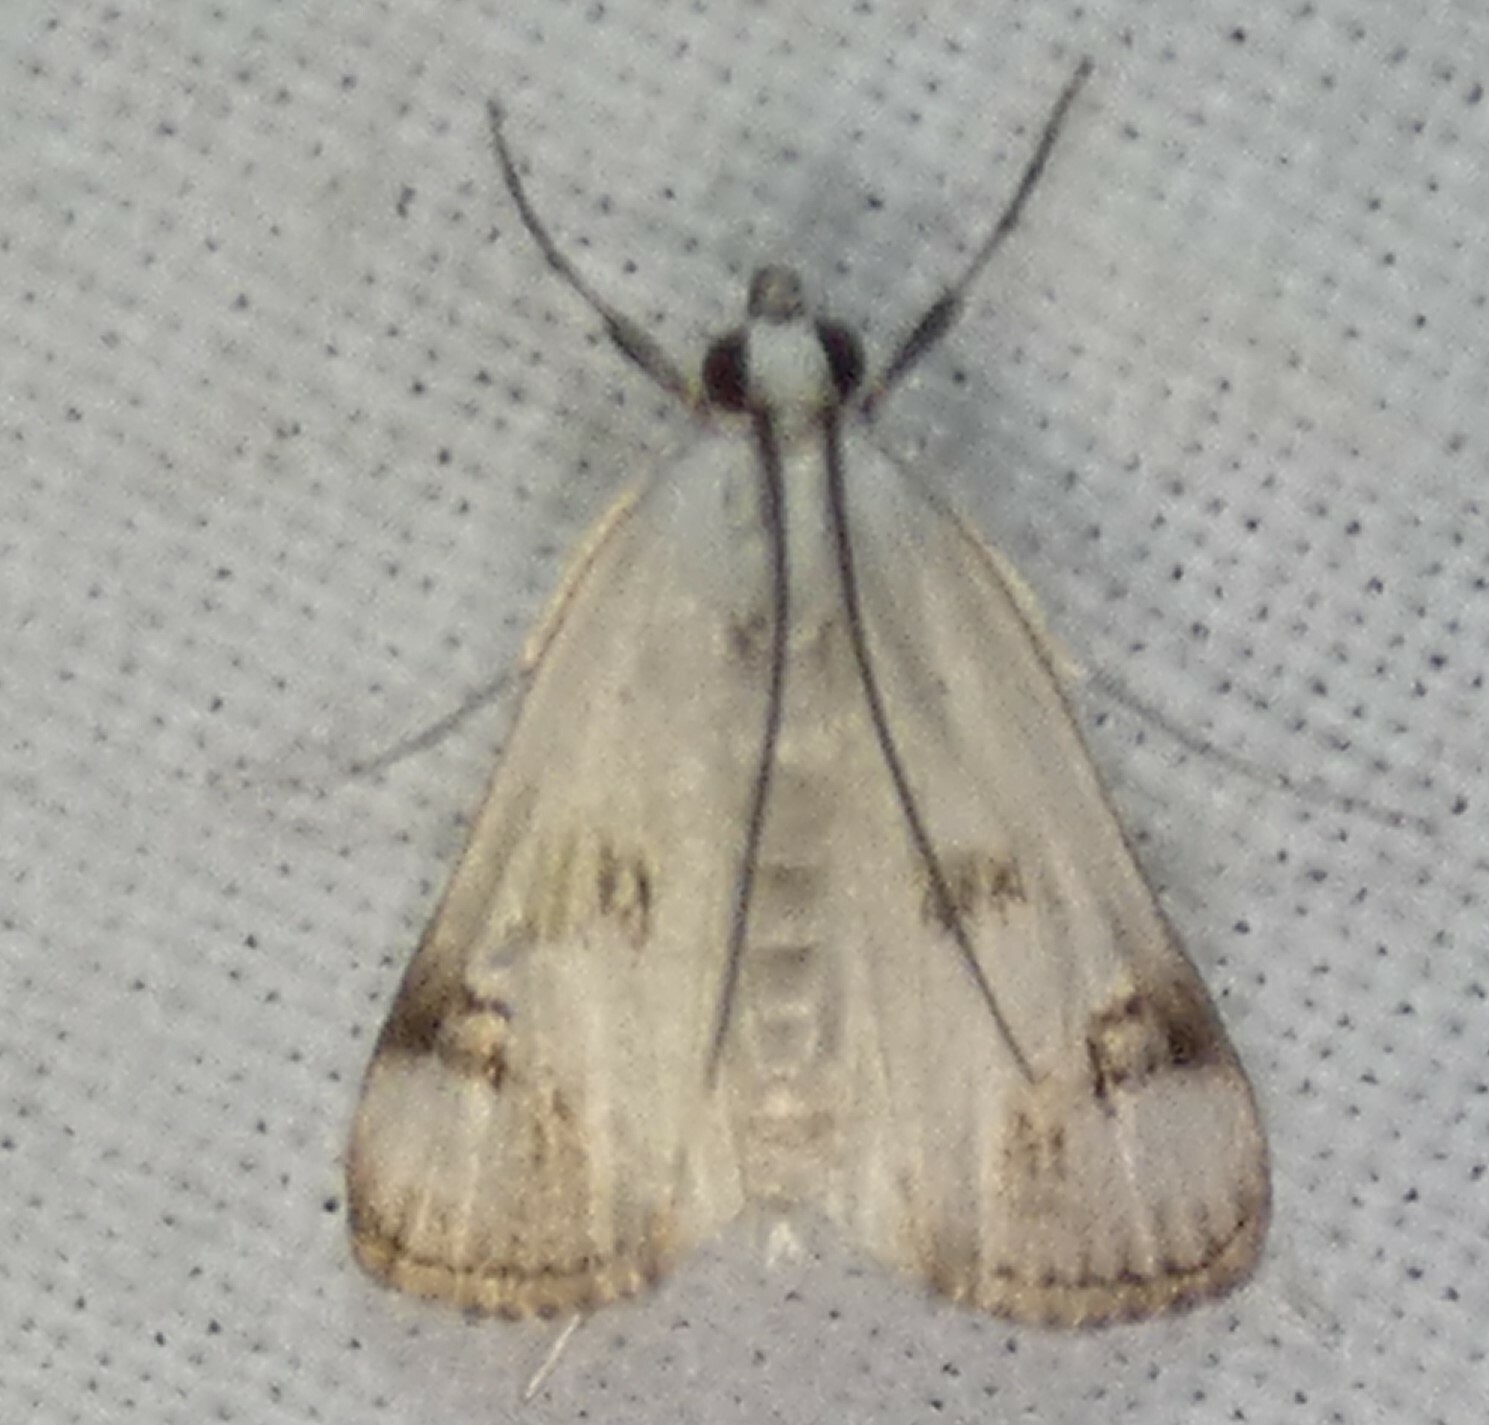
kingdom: Animalia
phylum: Arthropoda
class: Insecta
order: Lepidoptera
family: Crambidae
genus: Parapoynx
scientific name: Parapoynx maculalis
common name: Polymorphic pondweed moth
